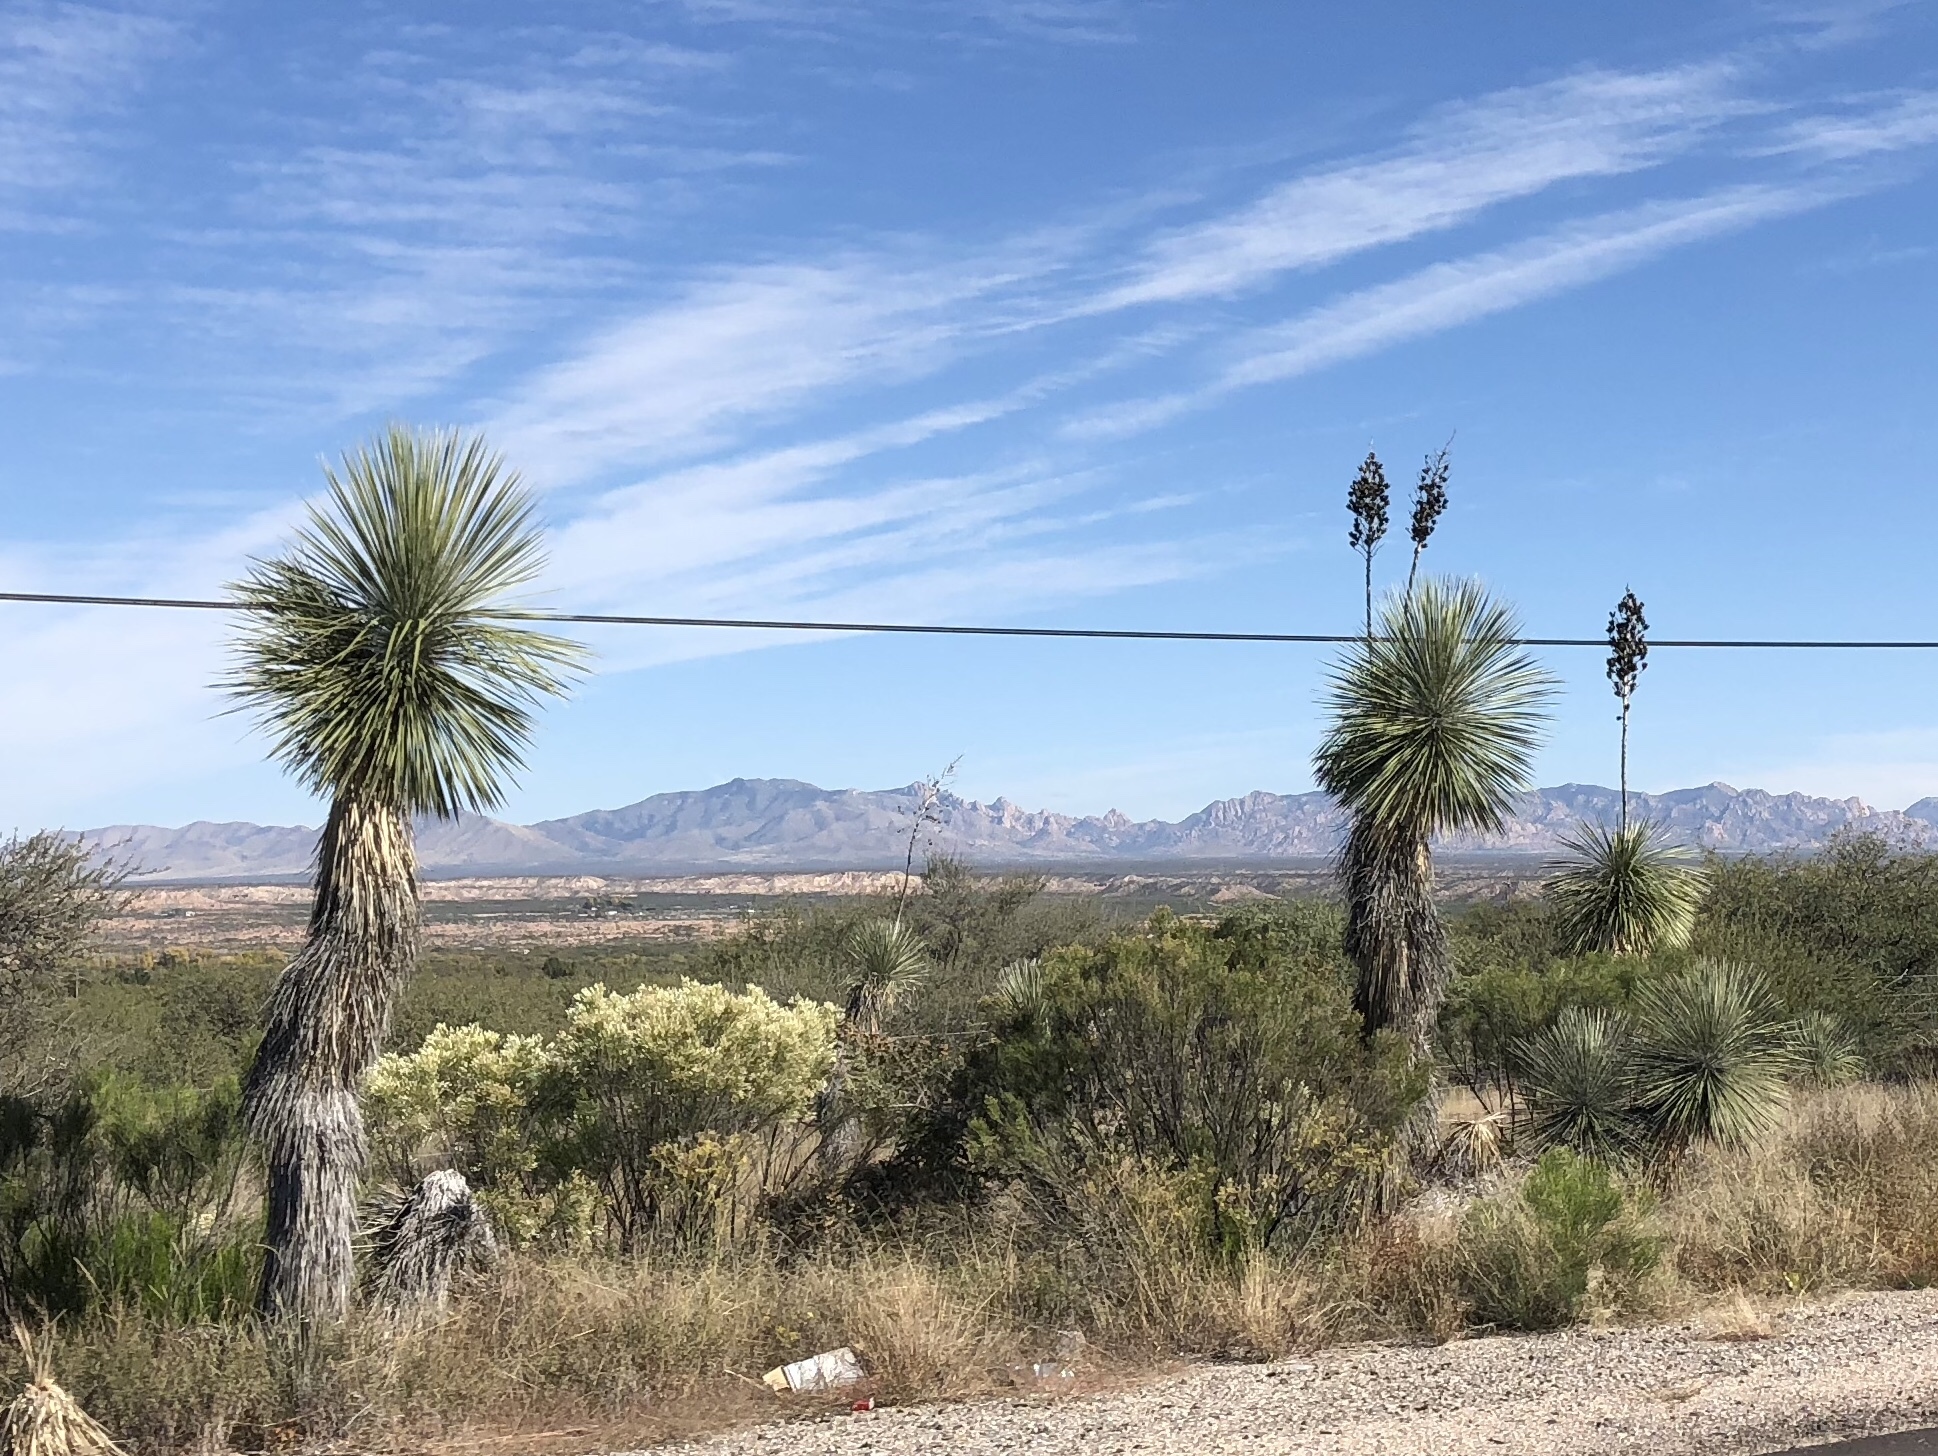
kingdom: Plantae
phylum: Tracheophyta
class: Liliopsida
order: Asparagales
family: Asparagaceae
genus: Yucca
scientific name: Yucca elata
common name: Palmella
